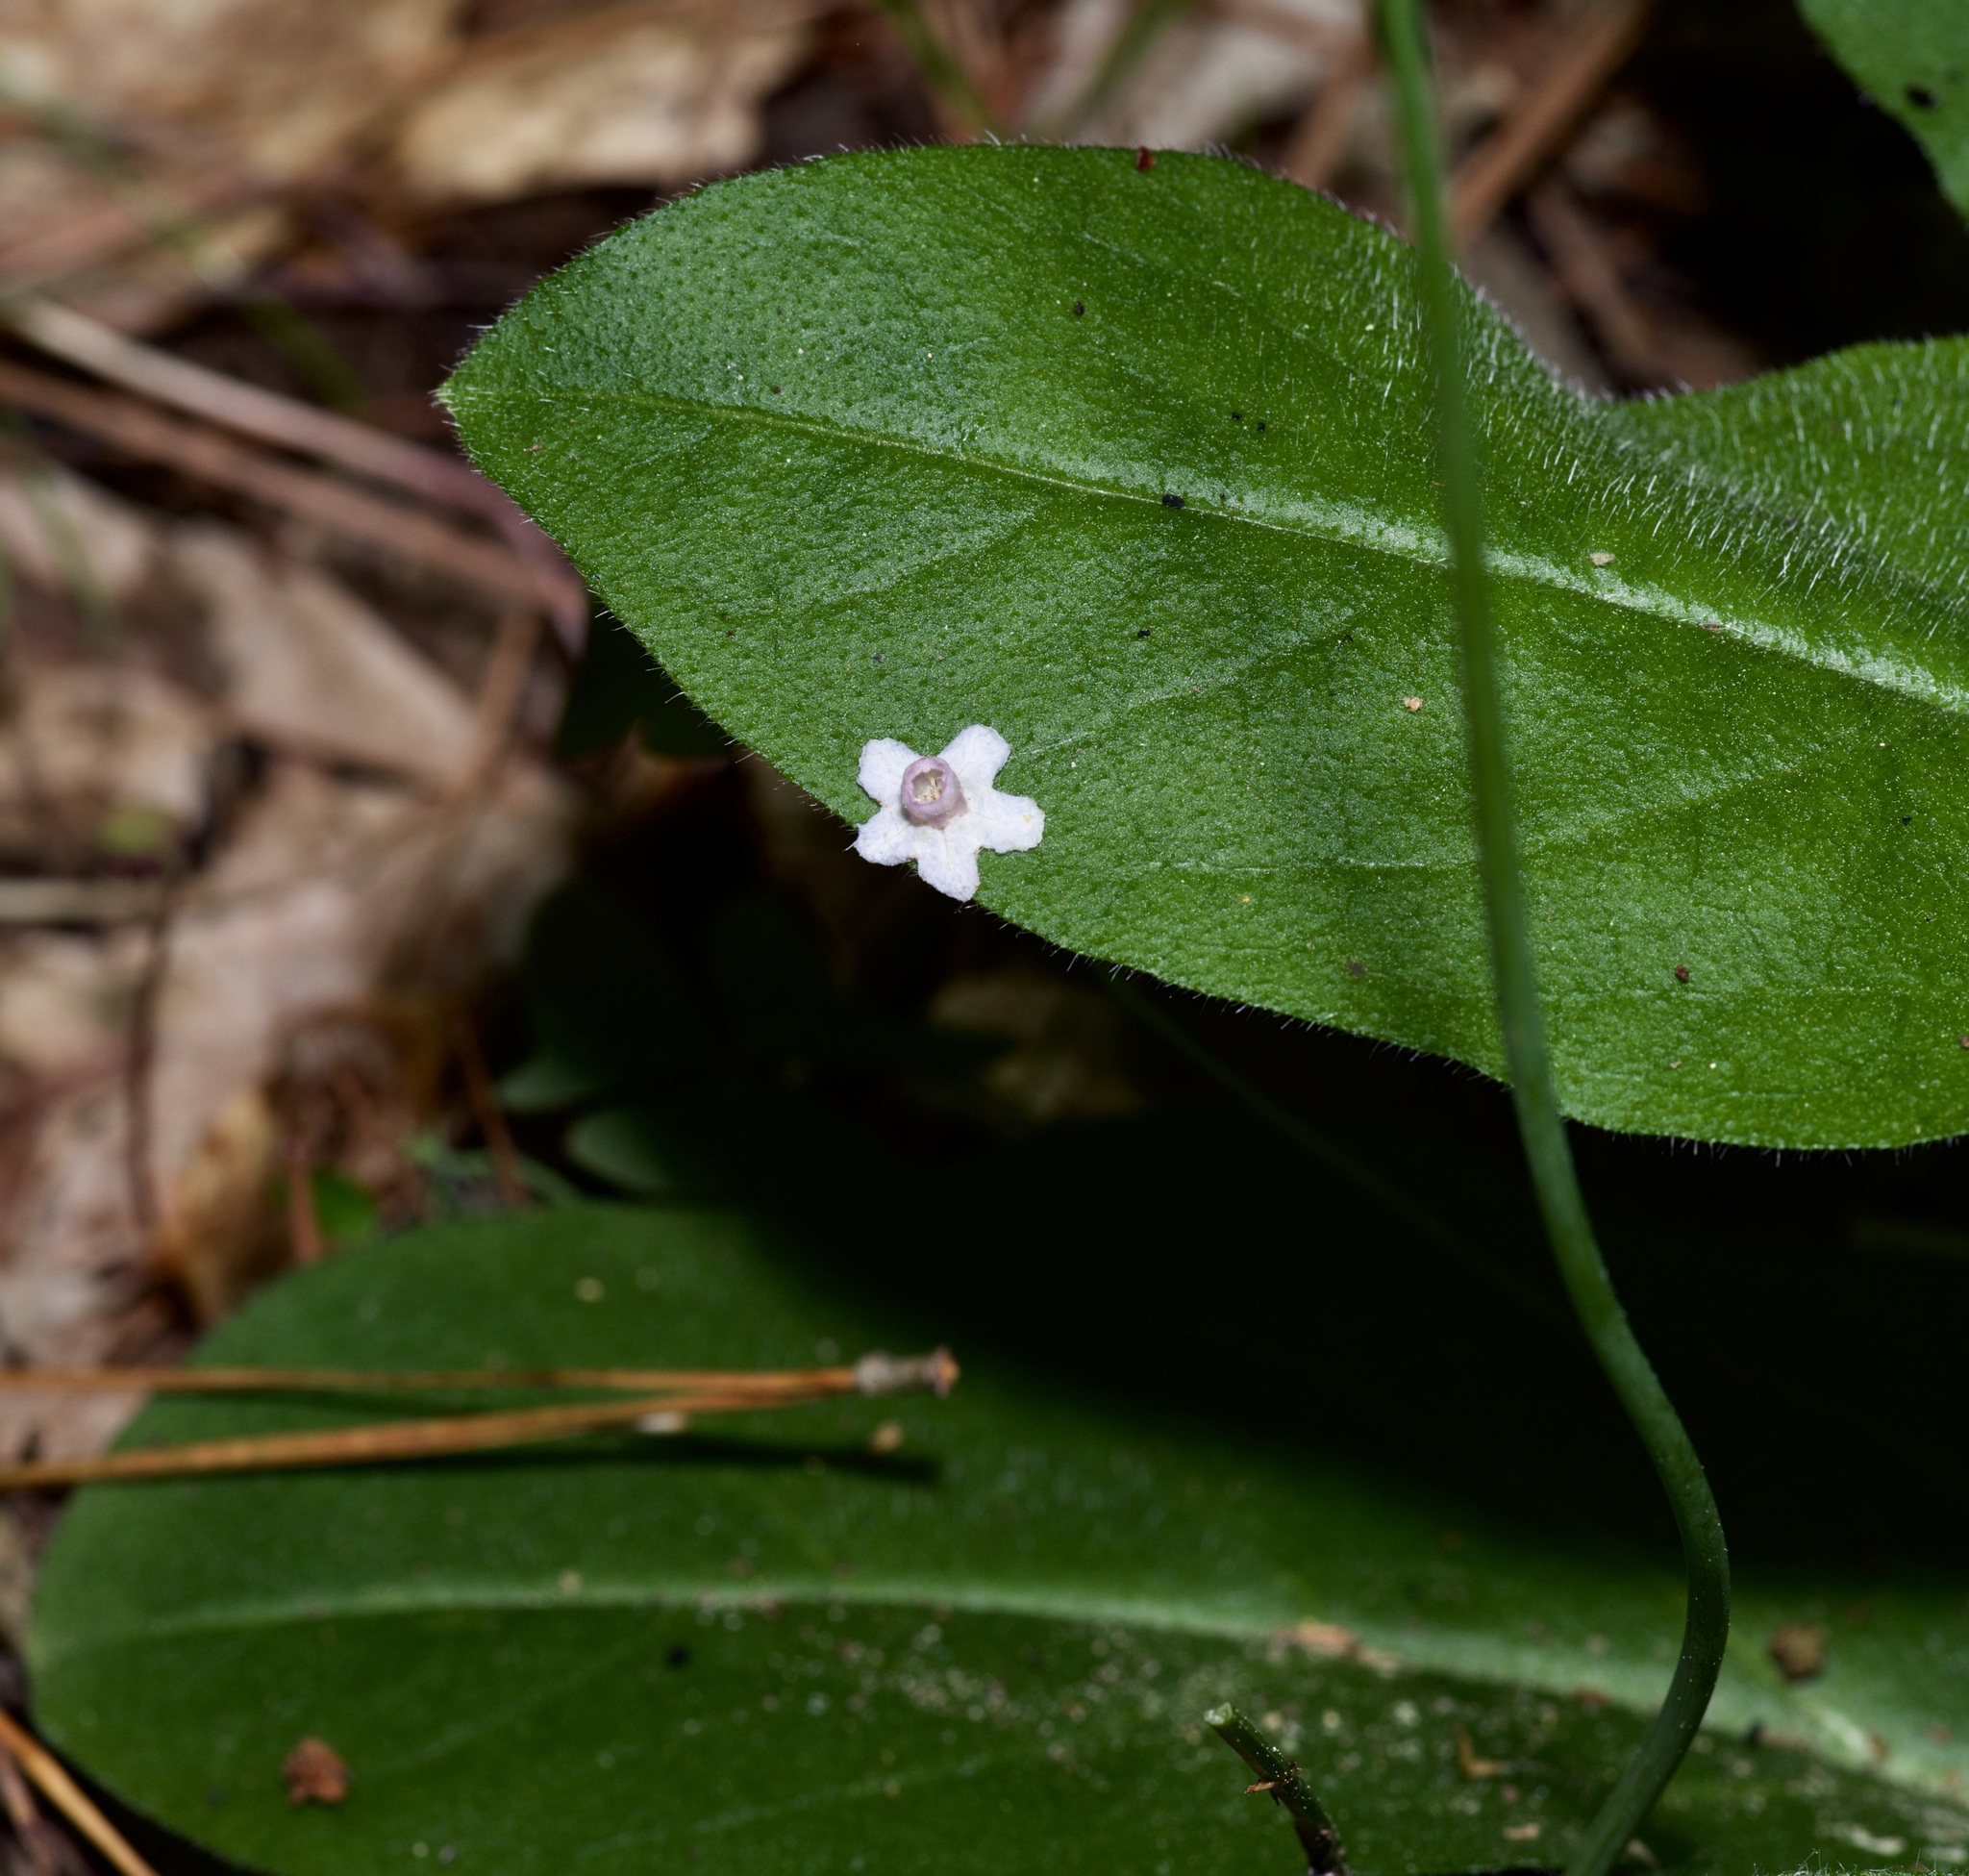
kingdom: Plantae
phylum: Tracheophyta
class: Magnoliopsida
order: Boraginales
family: Boraginaceae
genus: Andersonglossum
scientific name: Andersonglossum virginianum
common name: Wild comfrey
